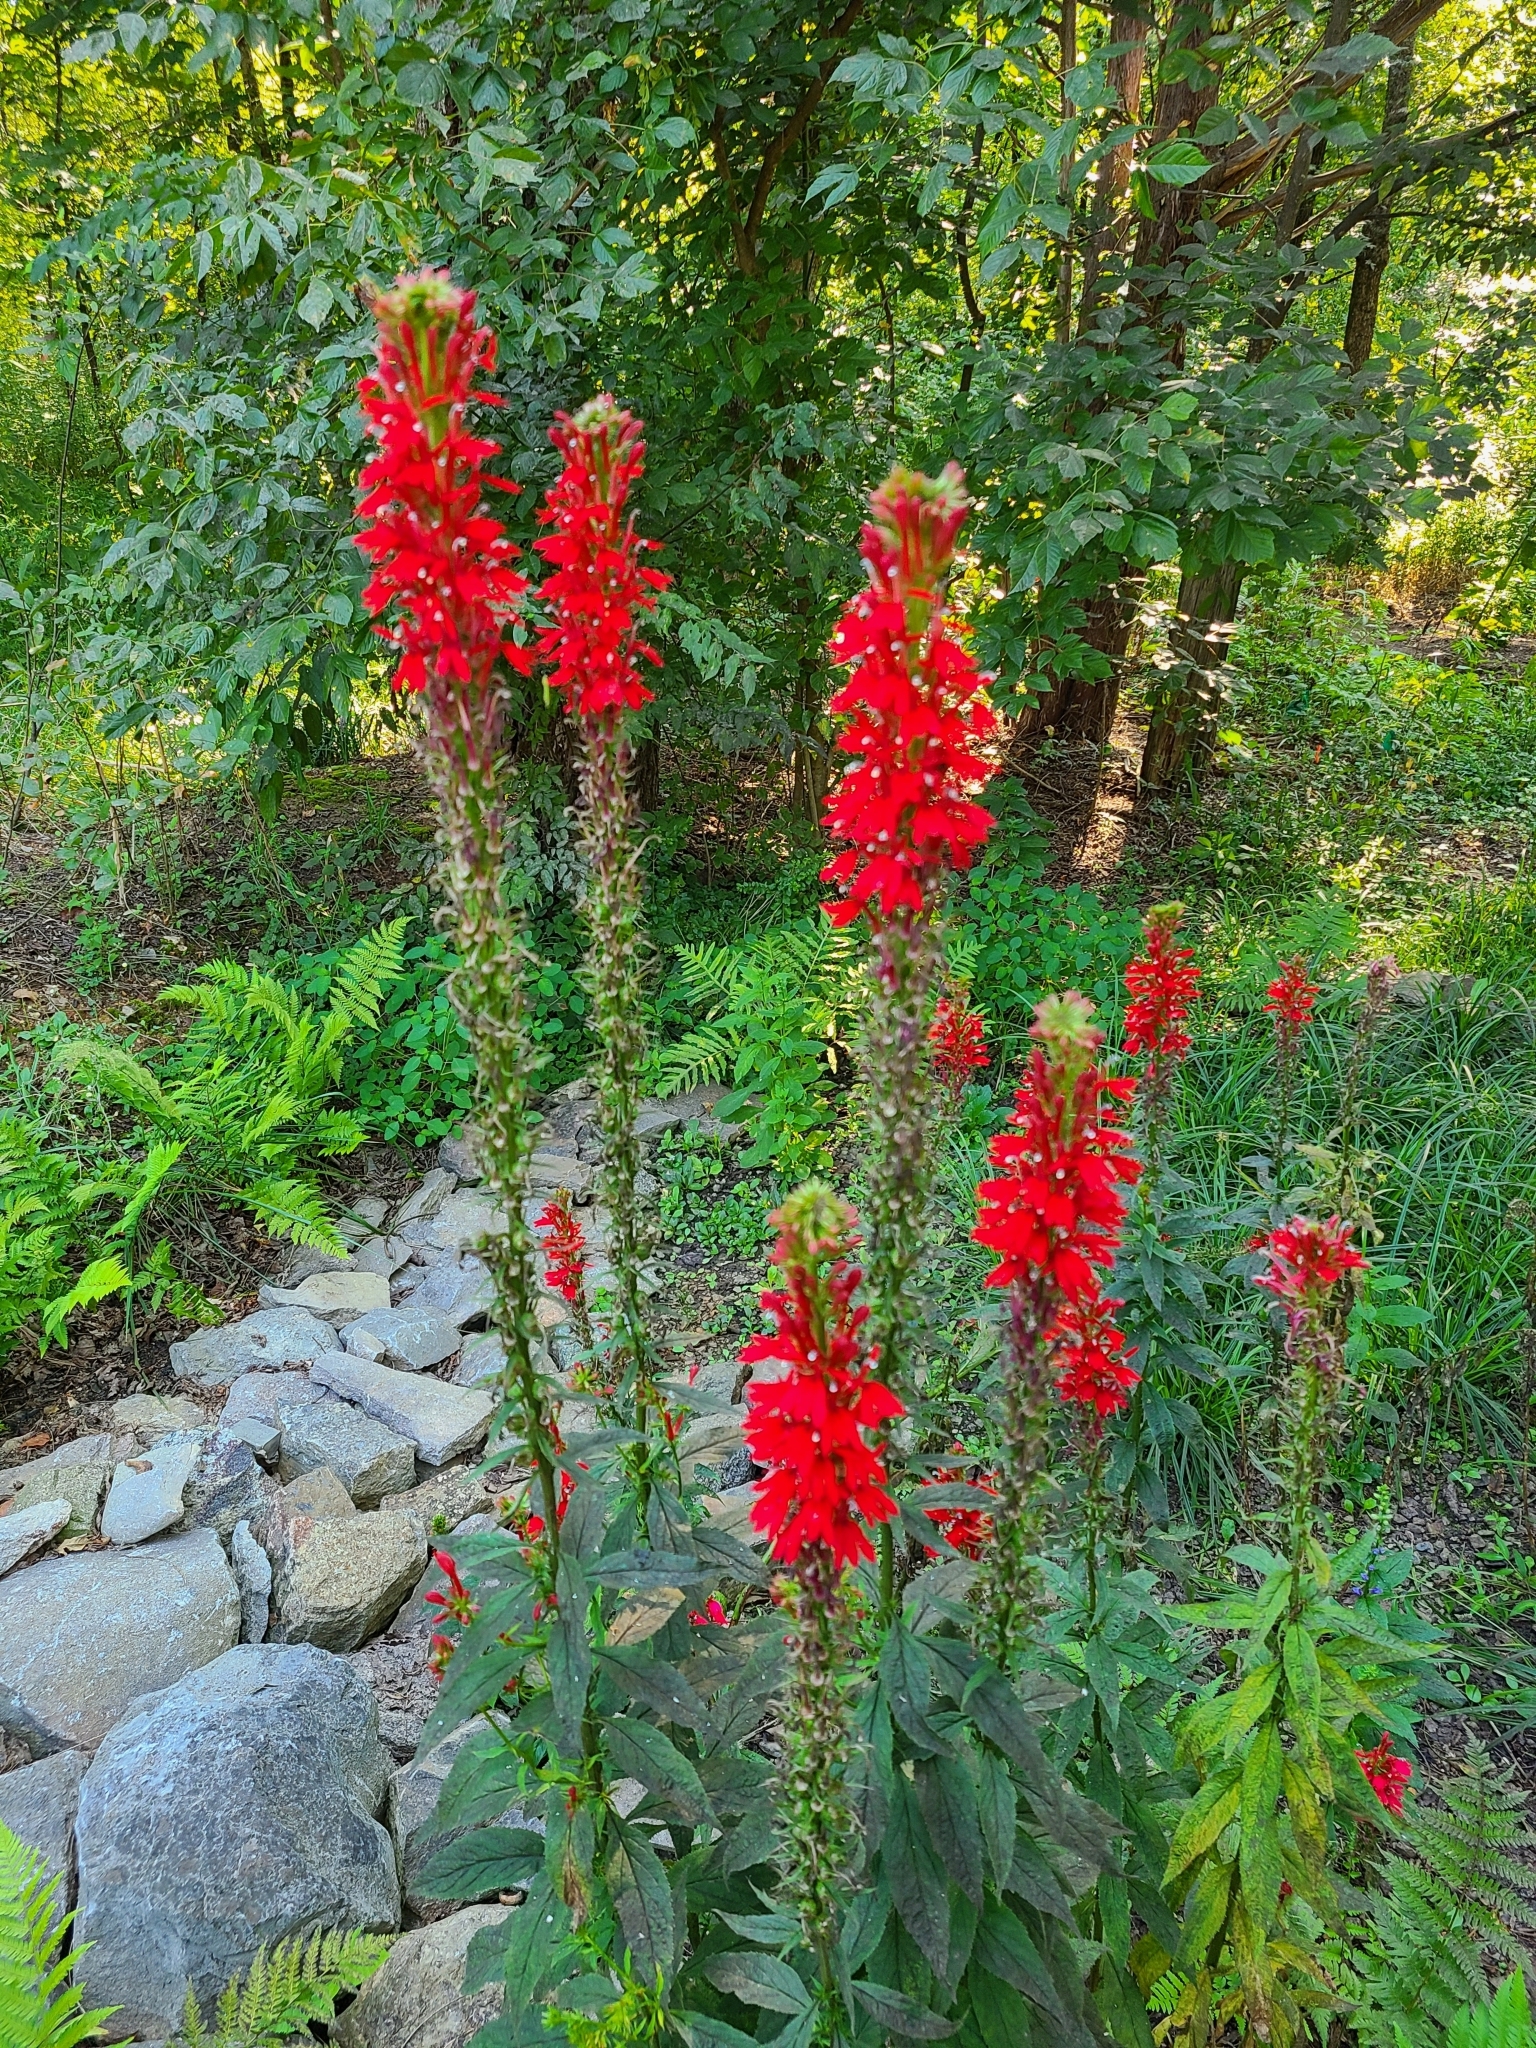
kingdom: Plantae
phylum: Tracheophyta
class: Magnoliopsida
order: Asterales
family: Campanulaceae
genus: Lobelia
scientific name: Lobelia cardinalis
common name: Cardinal flower
